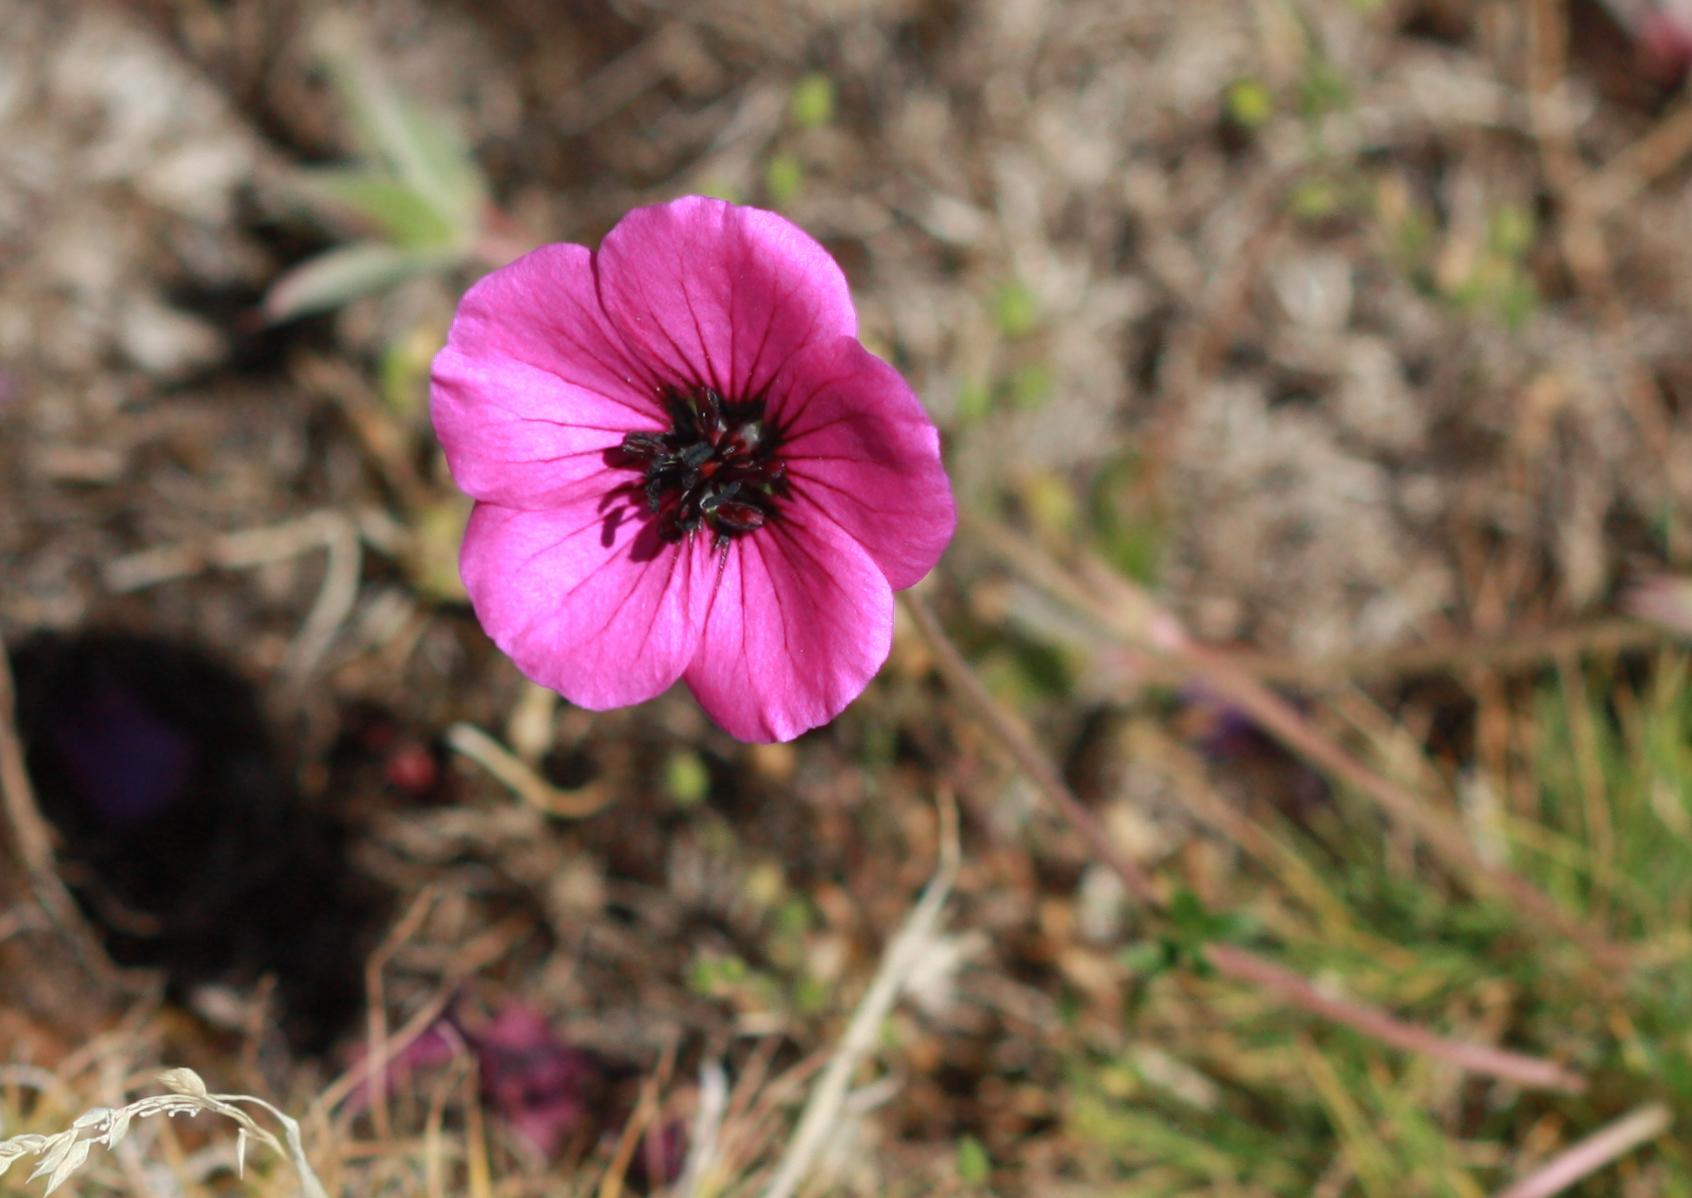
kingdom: Plantae
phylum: Tracheophyta
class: Magnoliopsida
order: Geraniales
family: Geraniaceae
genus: Geranium
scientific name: Geranium subcaulescens
